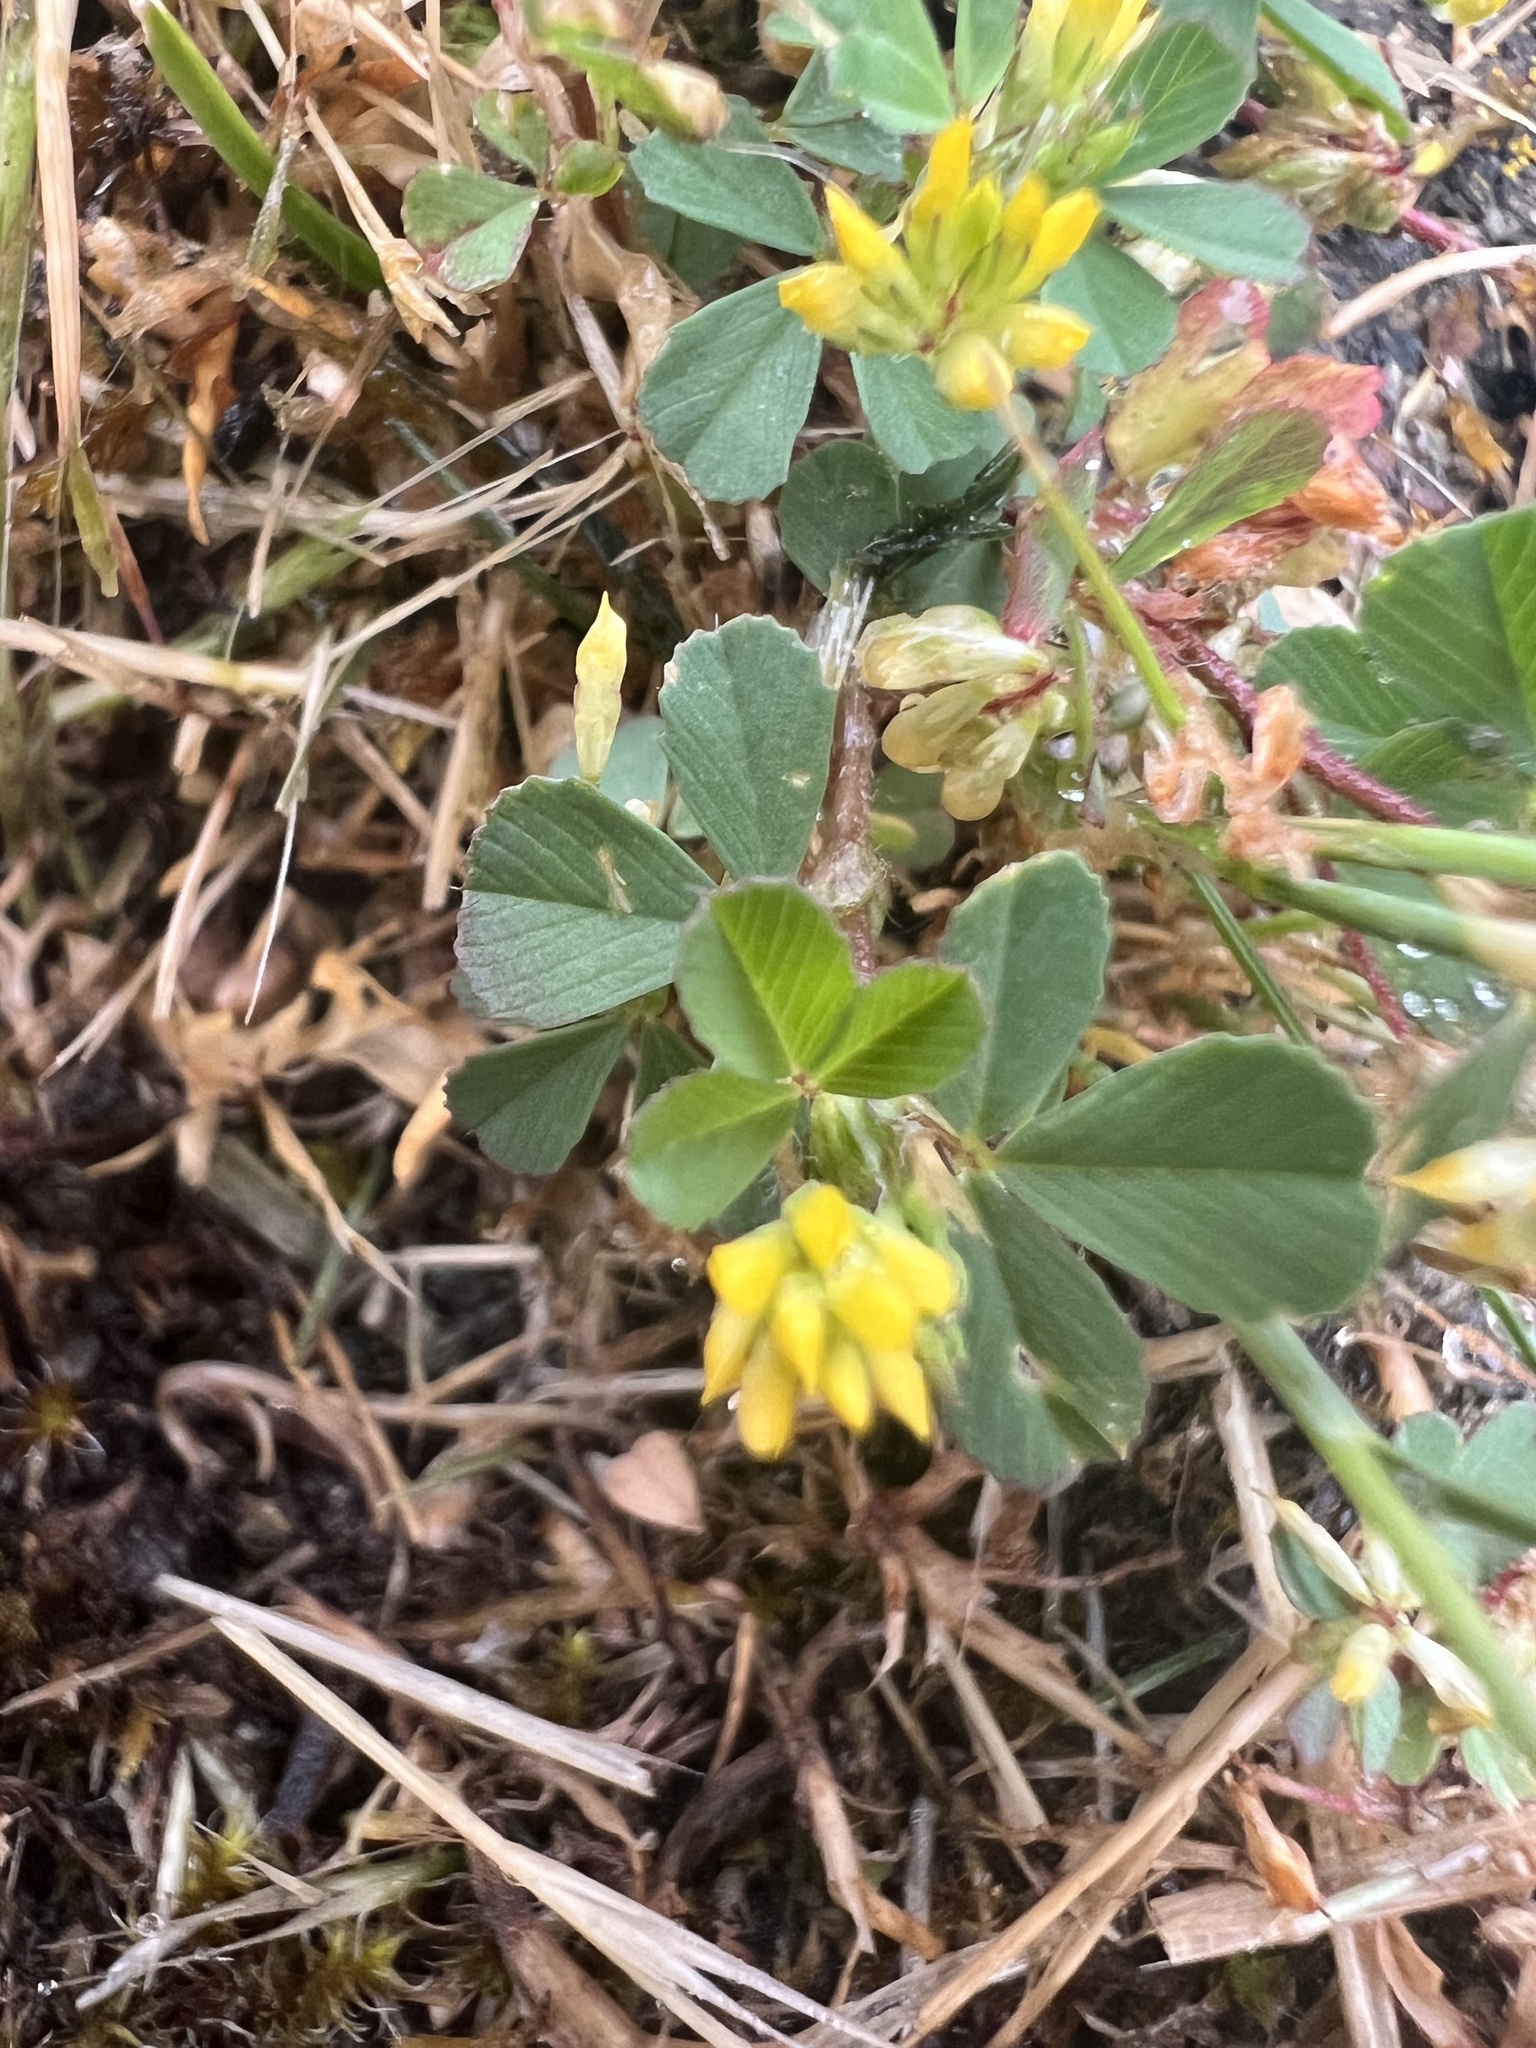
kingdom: Plantae
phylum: Tracheophyta
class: Magnoliopsida
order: Fabales
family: Fabaceae
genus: Trifolium
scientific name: Trifolium dubium
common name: Suckling clover
